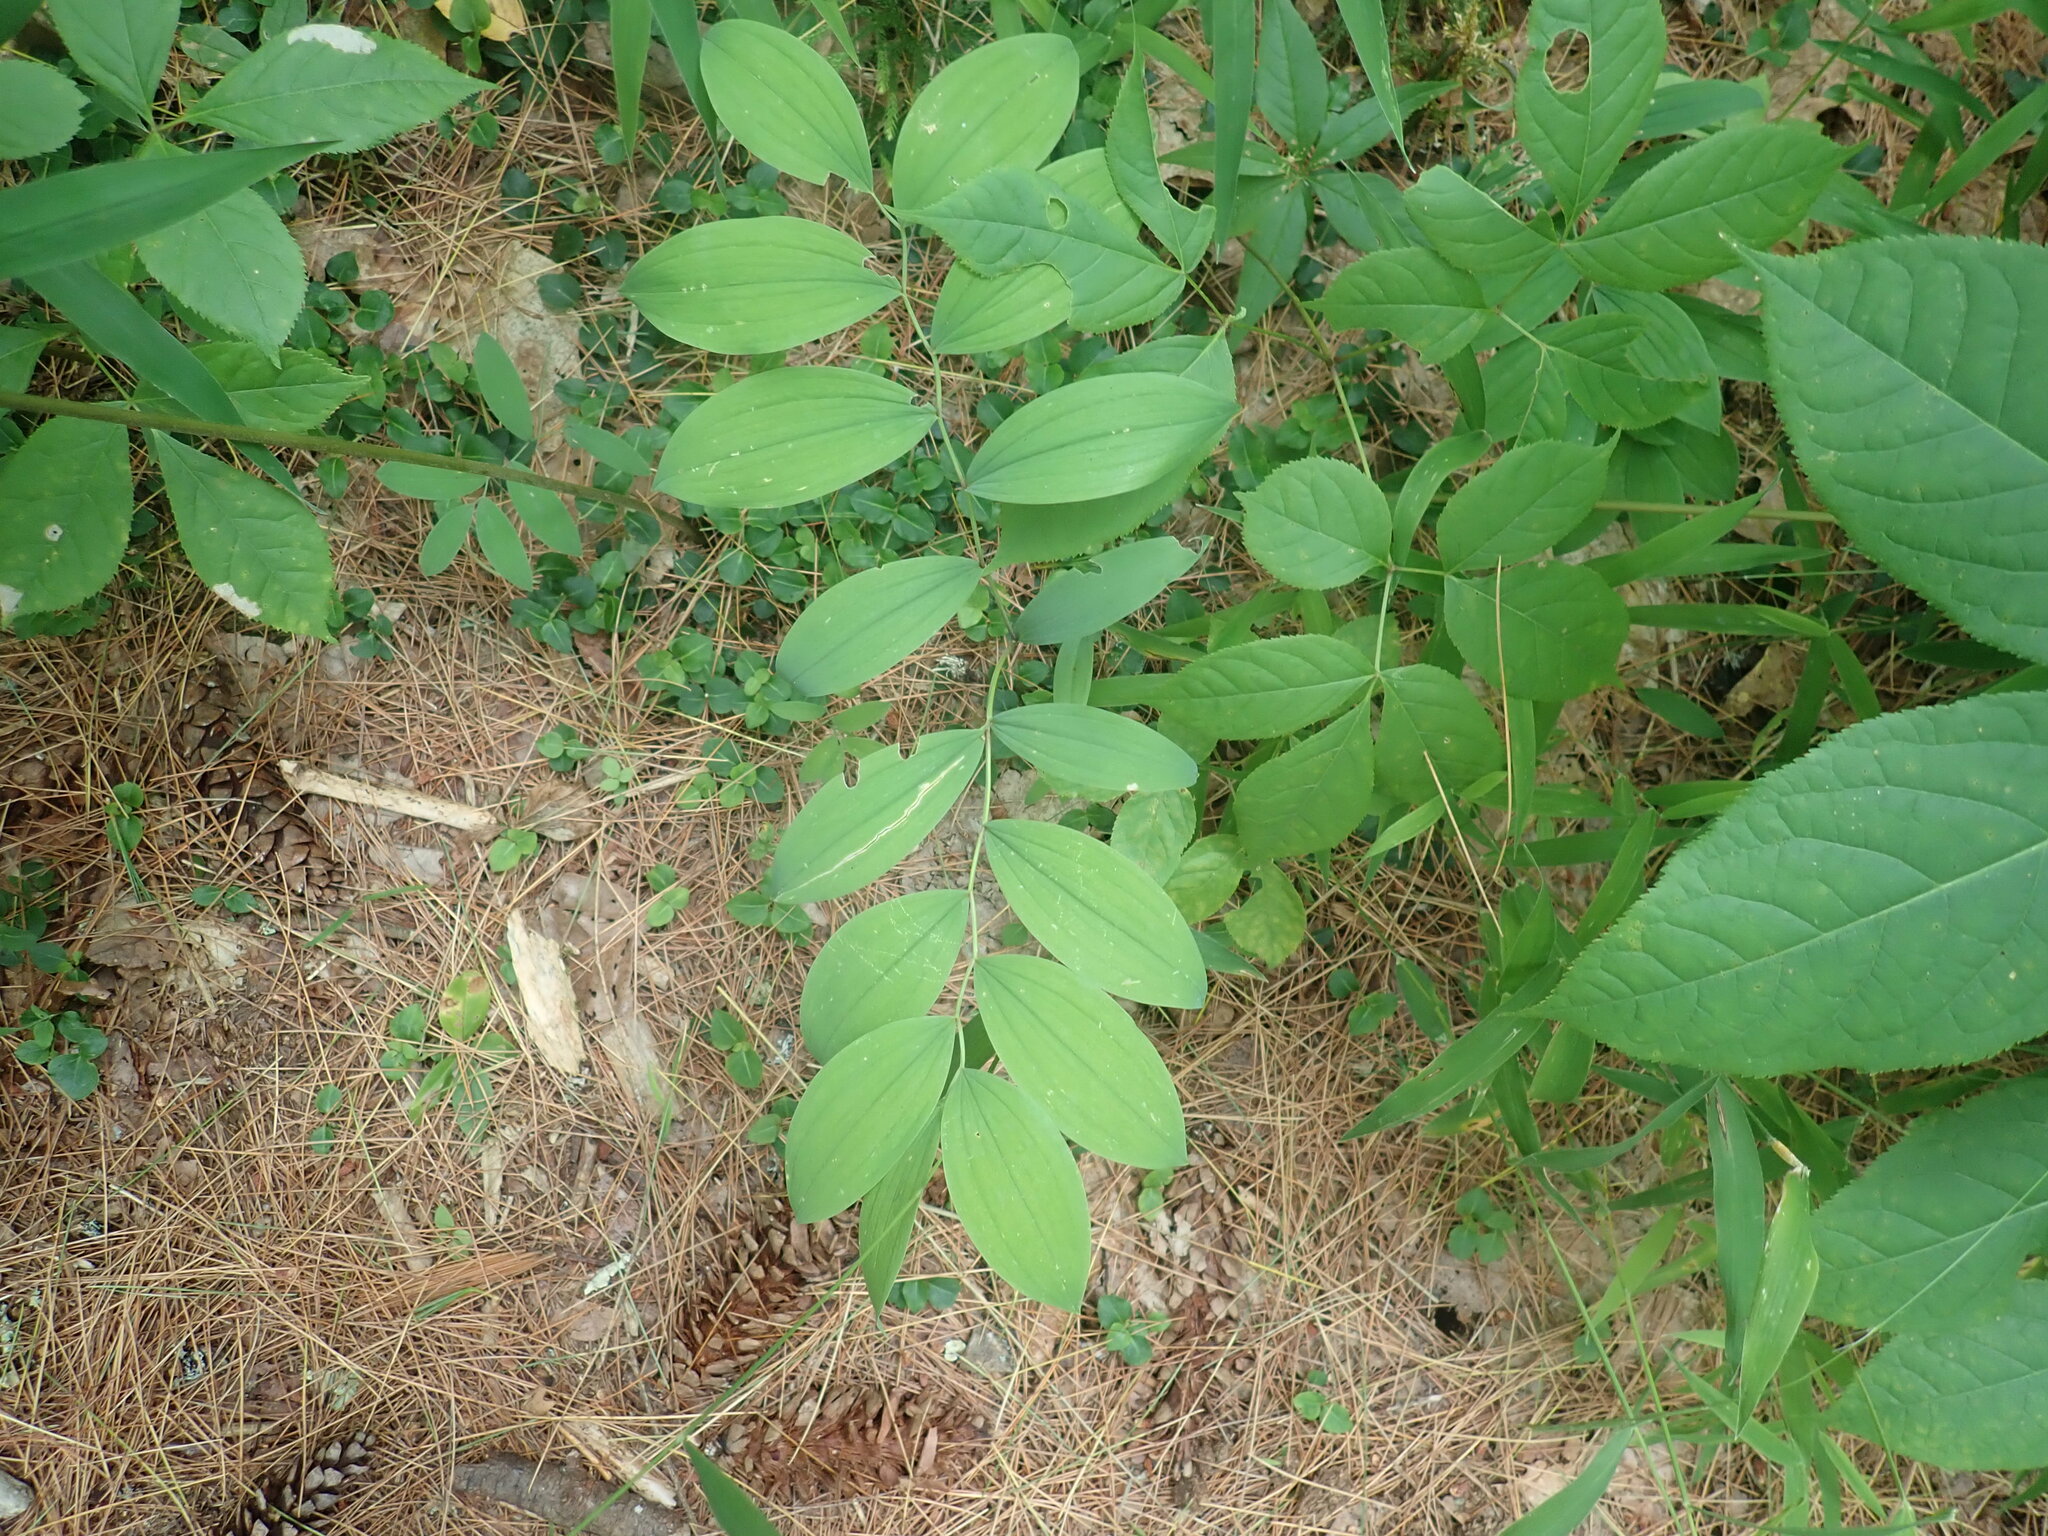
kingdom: Plantae
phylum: Tracheophyta
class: Liliopsida
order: Liliales
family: Colchicaceae
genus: Uvularia
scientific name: Uvularia sessilifolia
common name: Straw-lily
